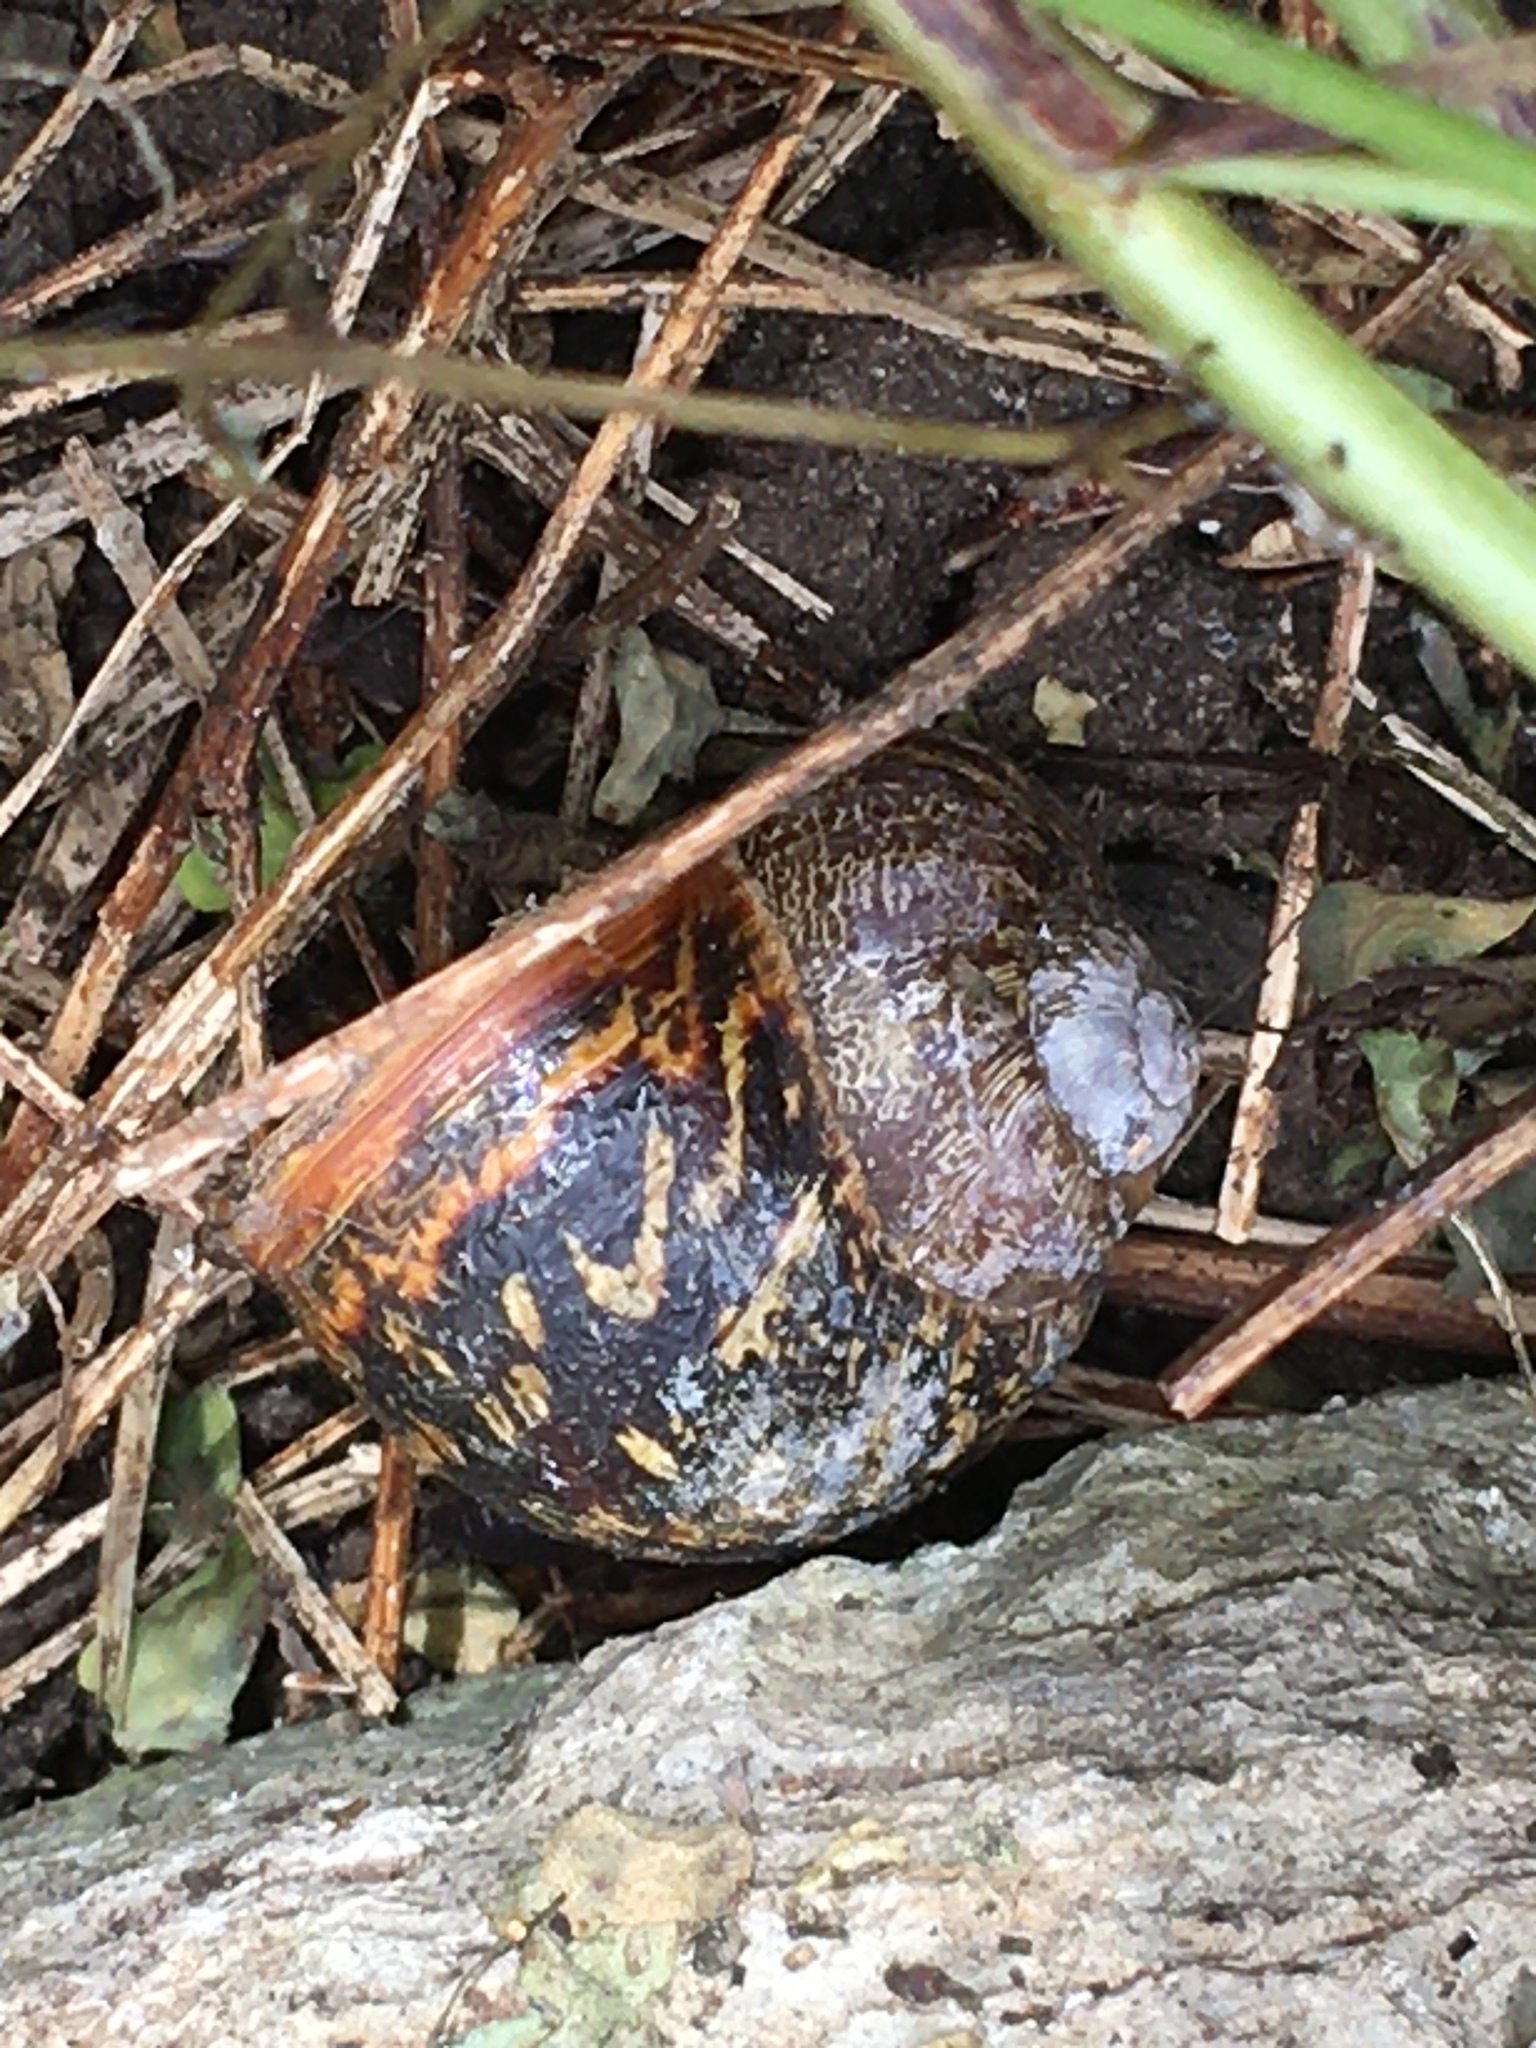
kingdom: Animalia
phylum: Mollusca
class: Gastropoda
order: Stylommatophora
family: Helicidae
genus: Cornu
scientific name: Cornu aspersum
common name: Brown garden snail
